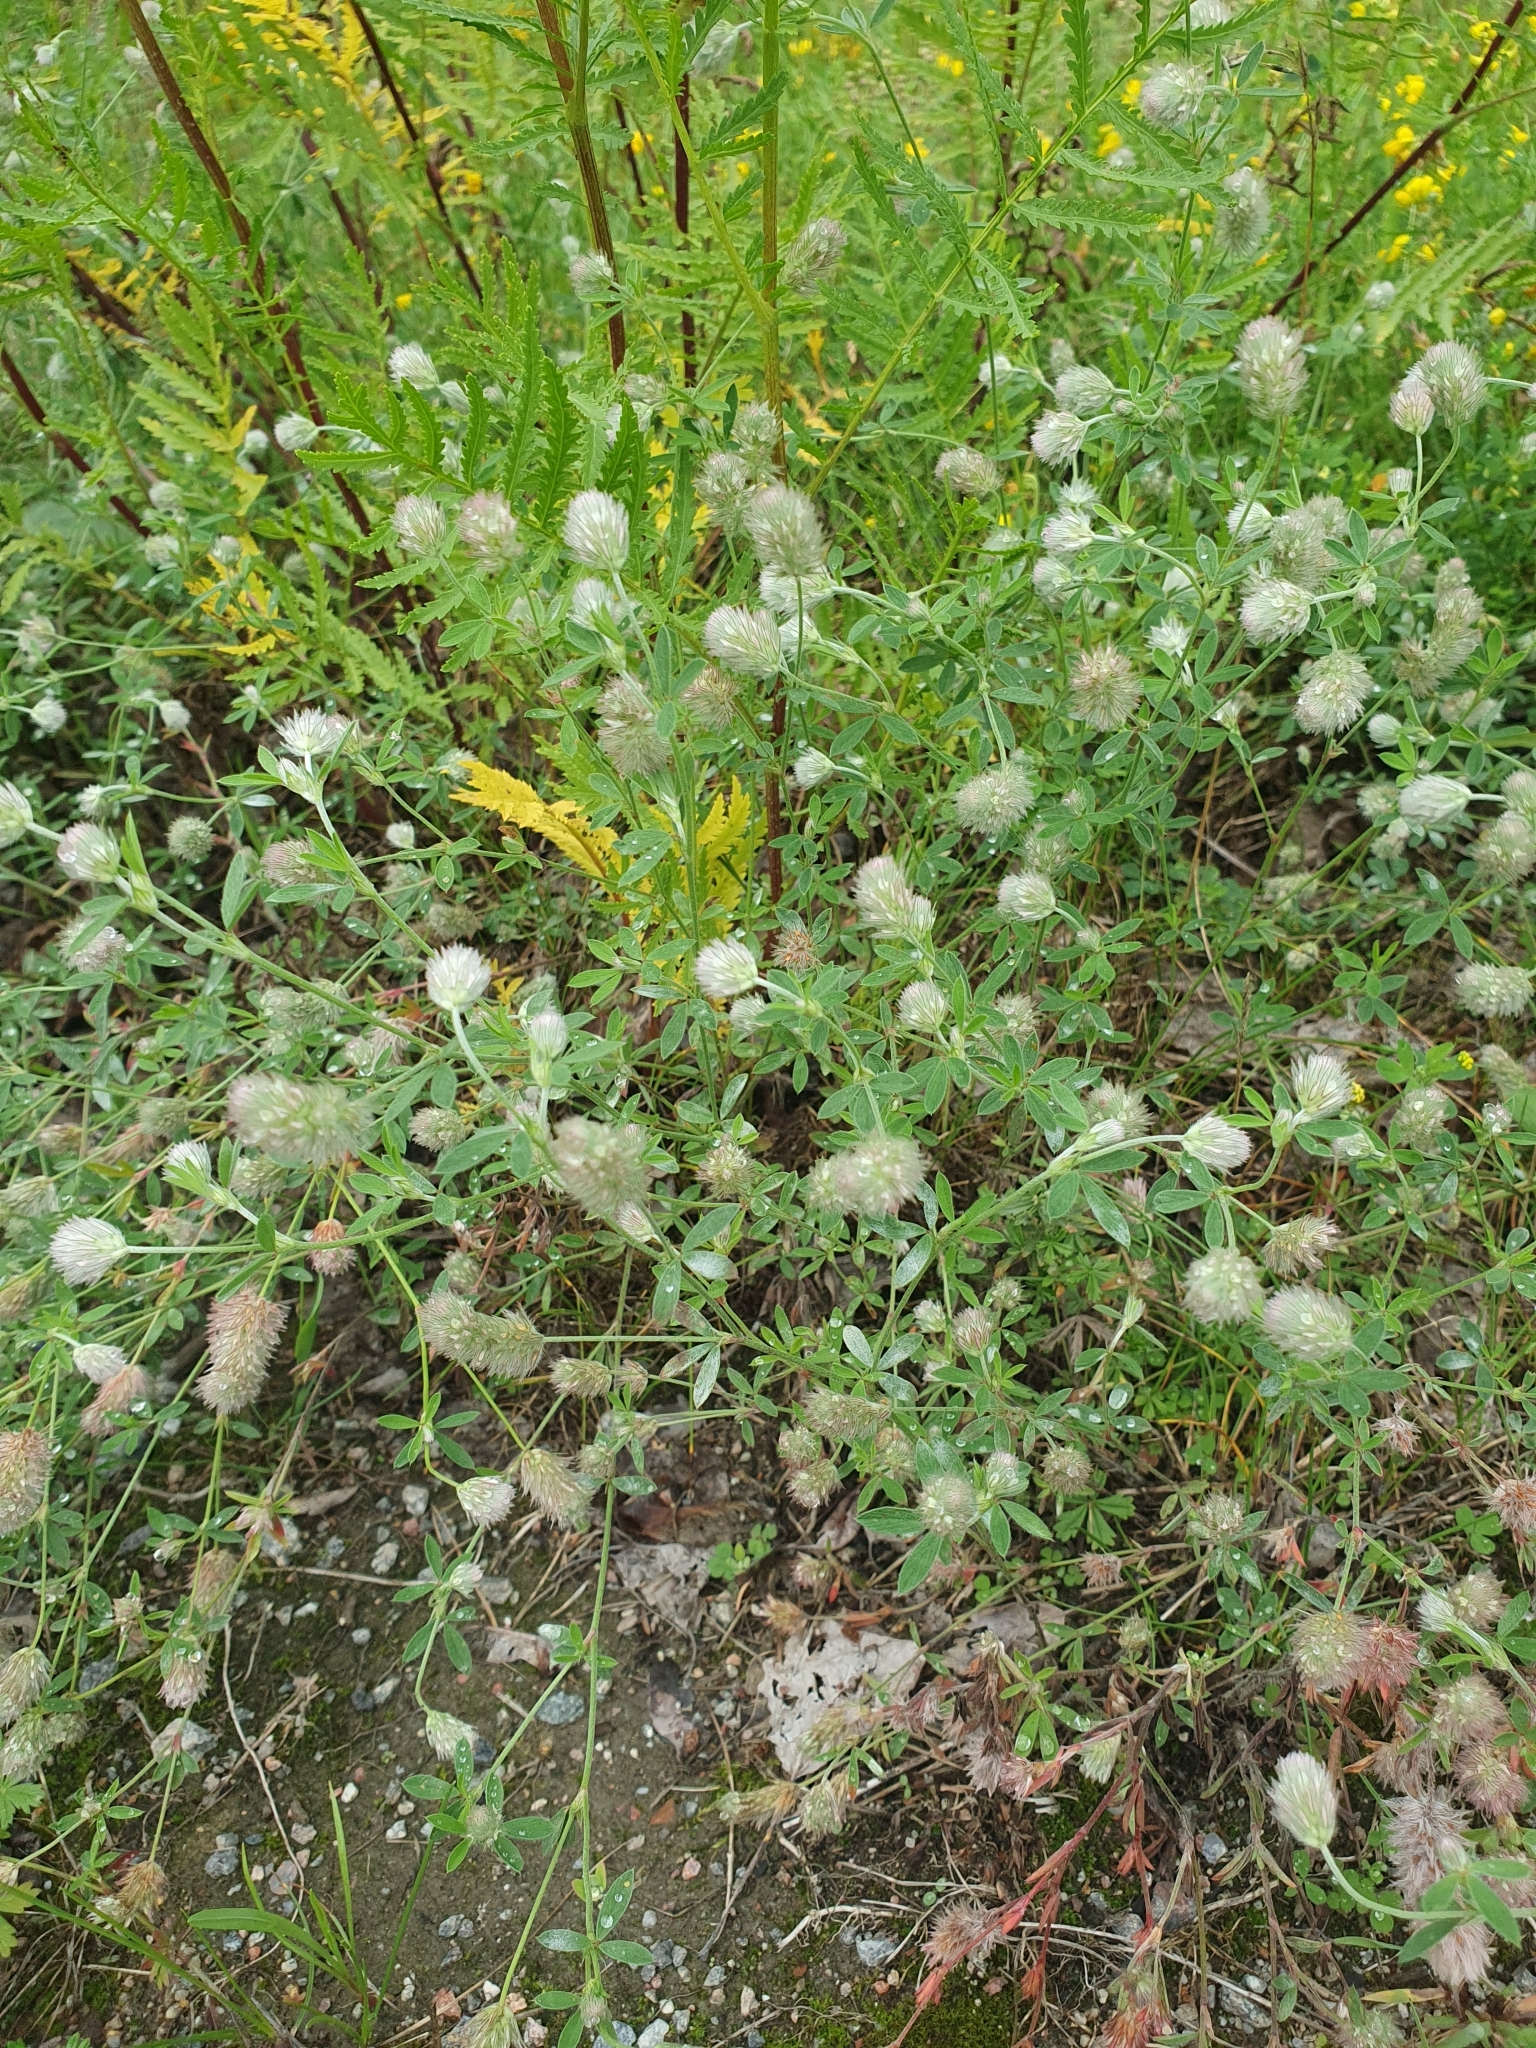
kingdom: Plantae
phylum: Tracheophyta
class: Magnoliopsida
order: Fabales
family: Fabaceae
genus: Trifolium
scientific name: Trifolium arvense
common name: Hare's-foot clover
